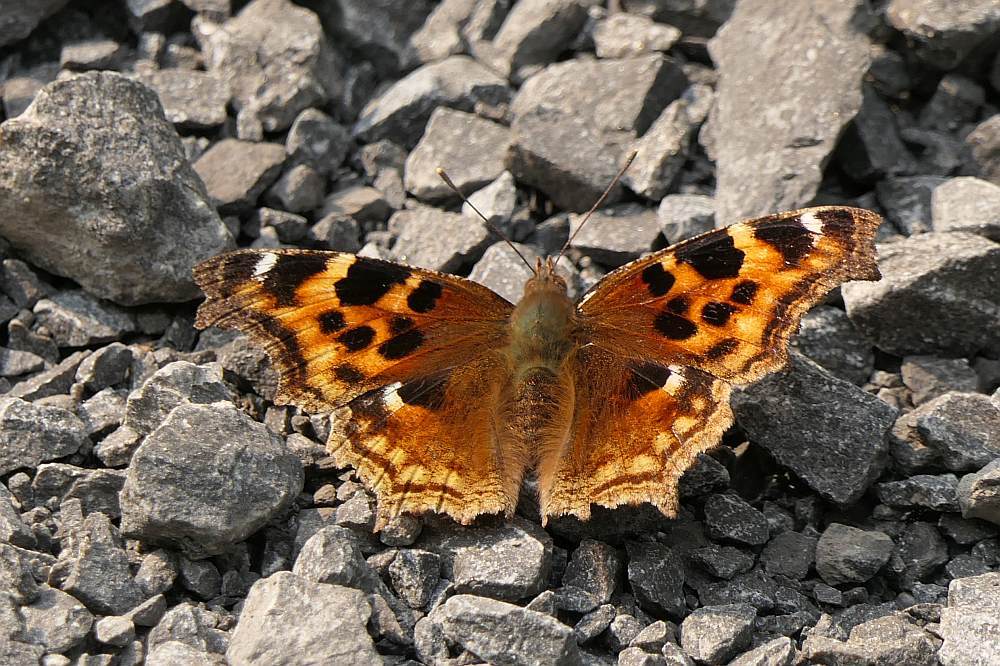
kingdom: Animalia
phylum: Arthropoda
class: Insecta
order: Lepidoptera
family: Nymphalidae
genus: Polygonia
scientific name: Polygonia vaualbum
